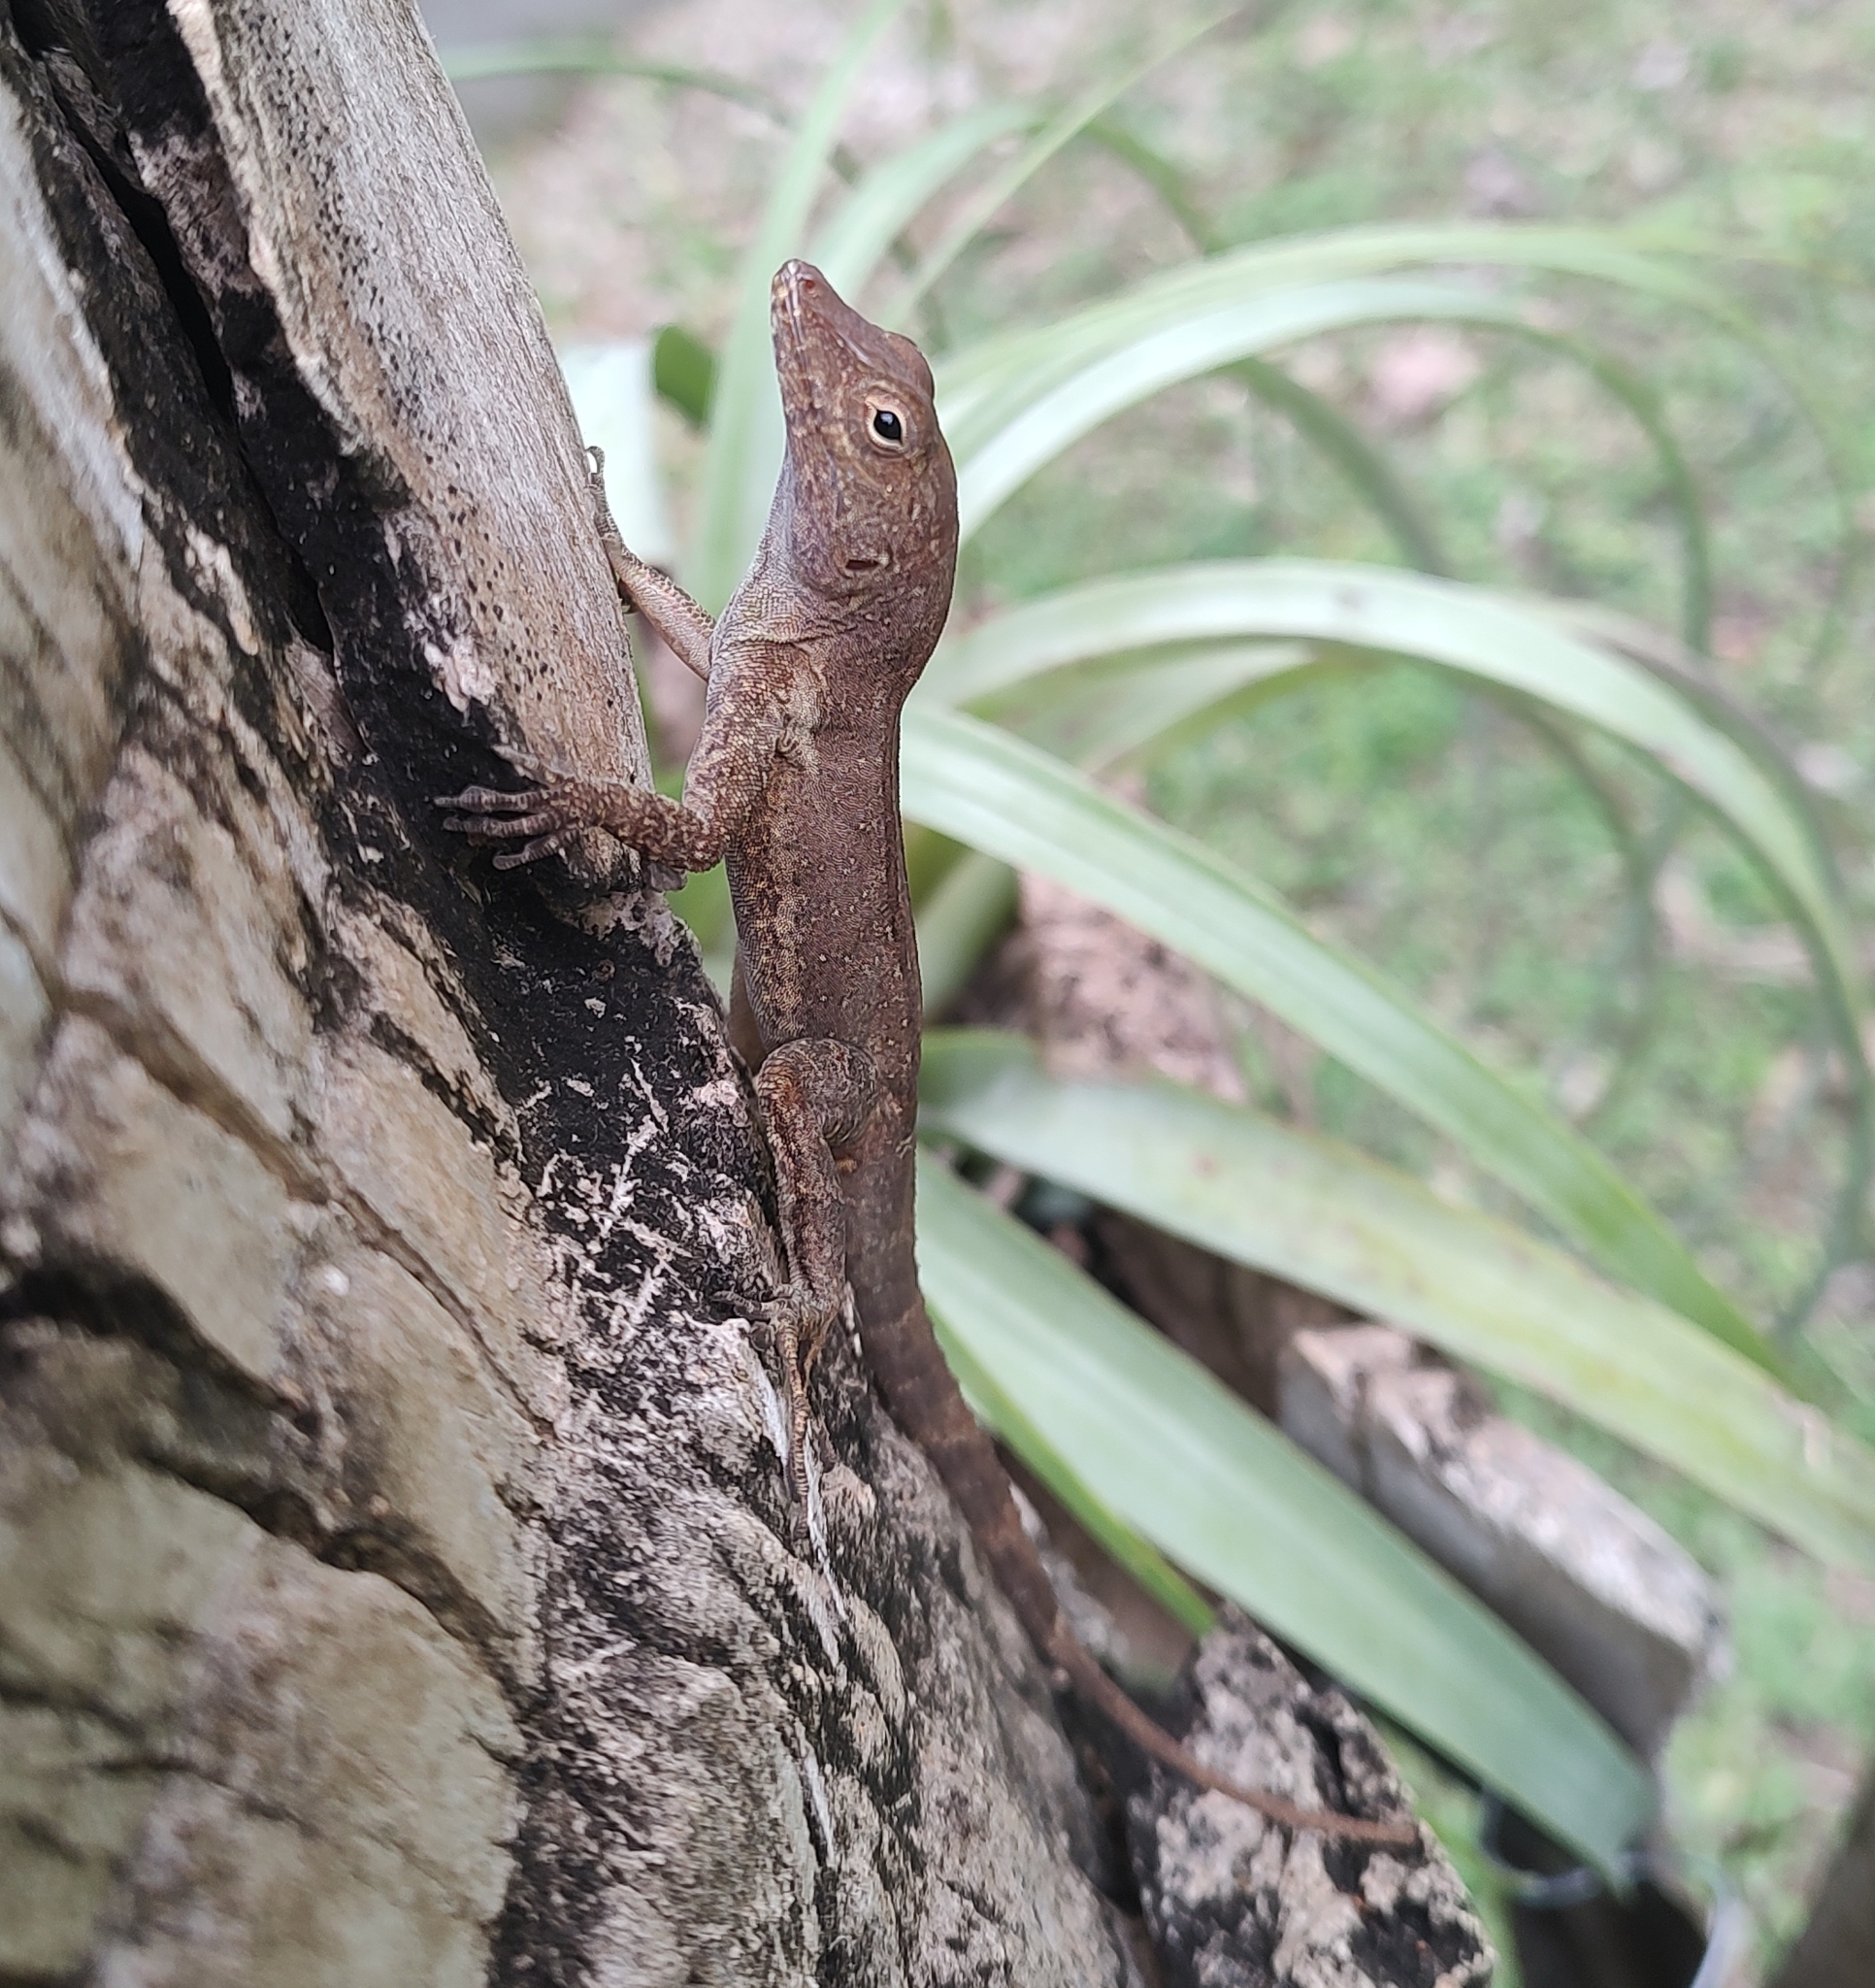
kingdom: Animalia
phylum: Chordata
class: Squamata
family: Dactyloidae
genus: Anolis
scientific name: Anolis cristatellus
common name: Crested anole
